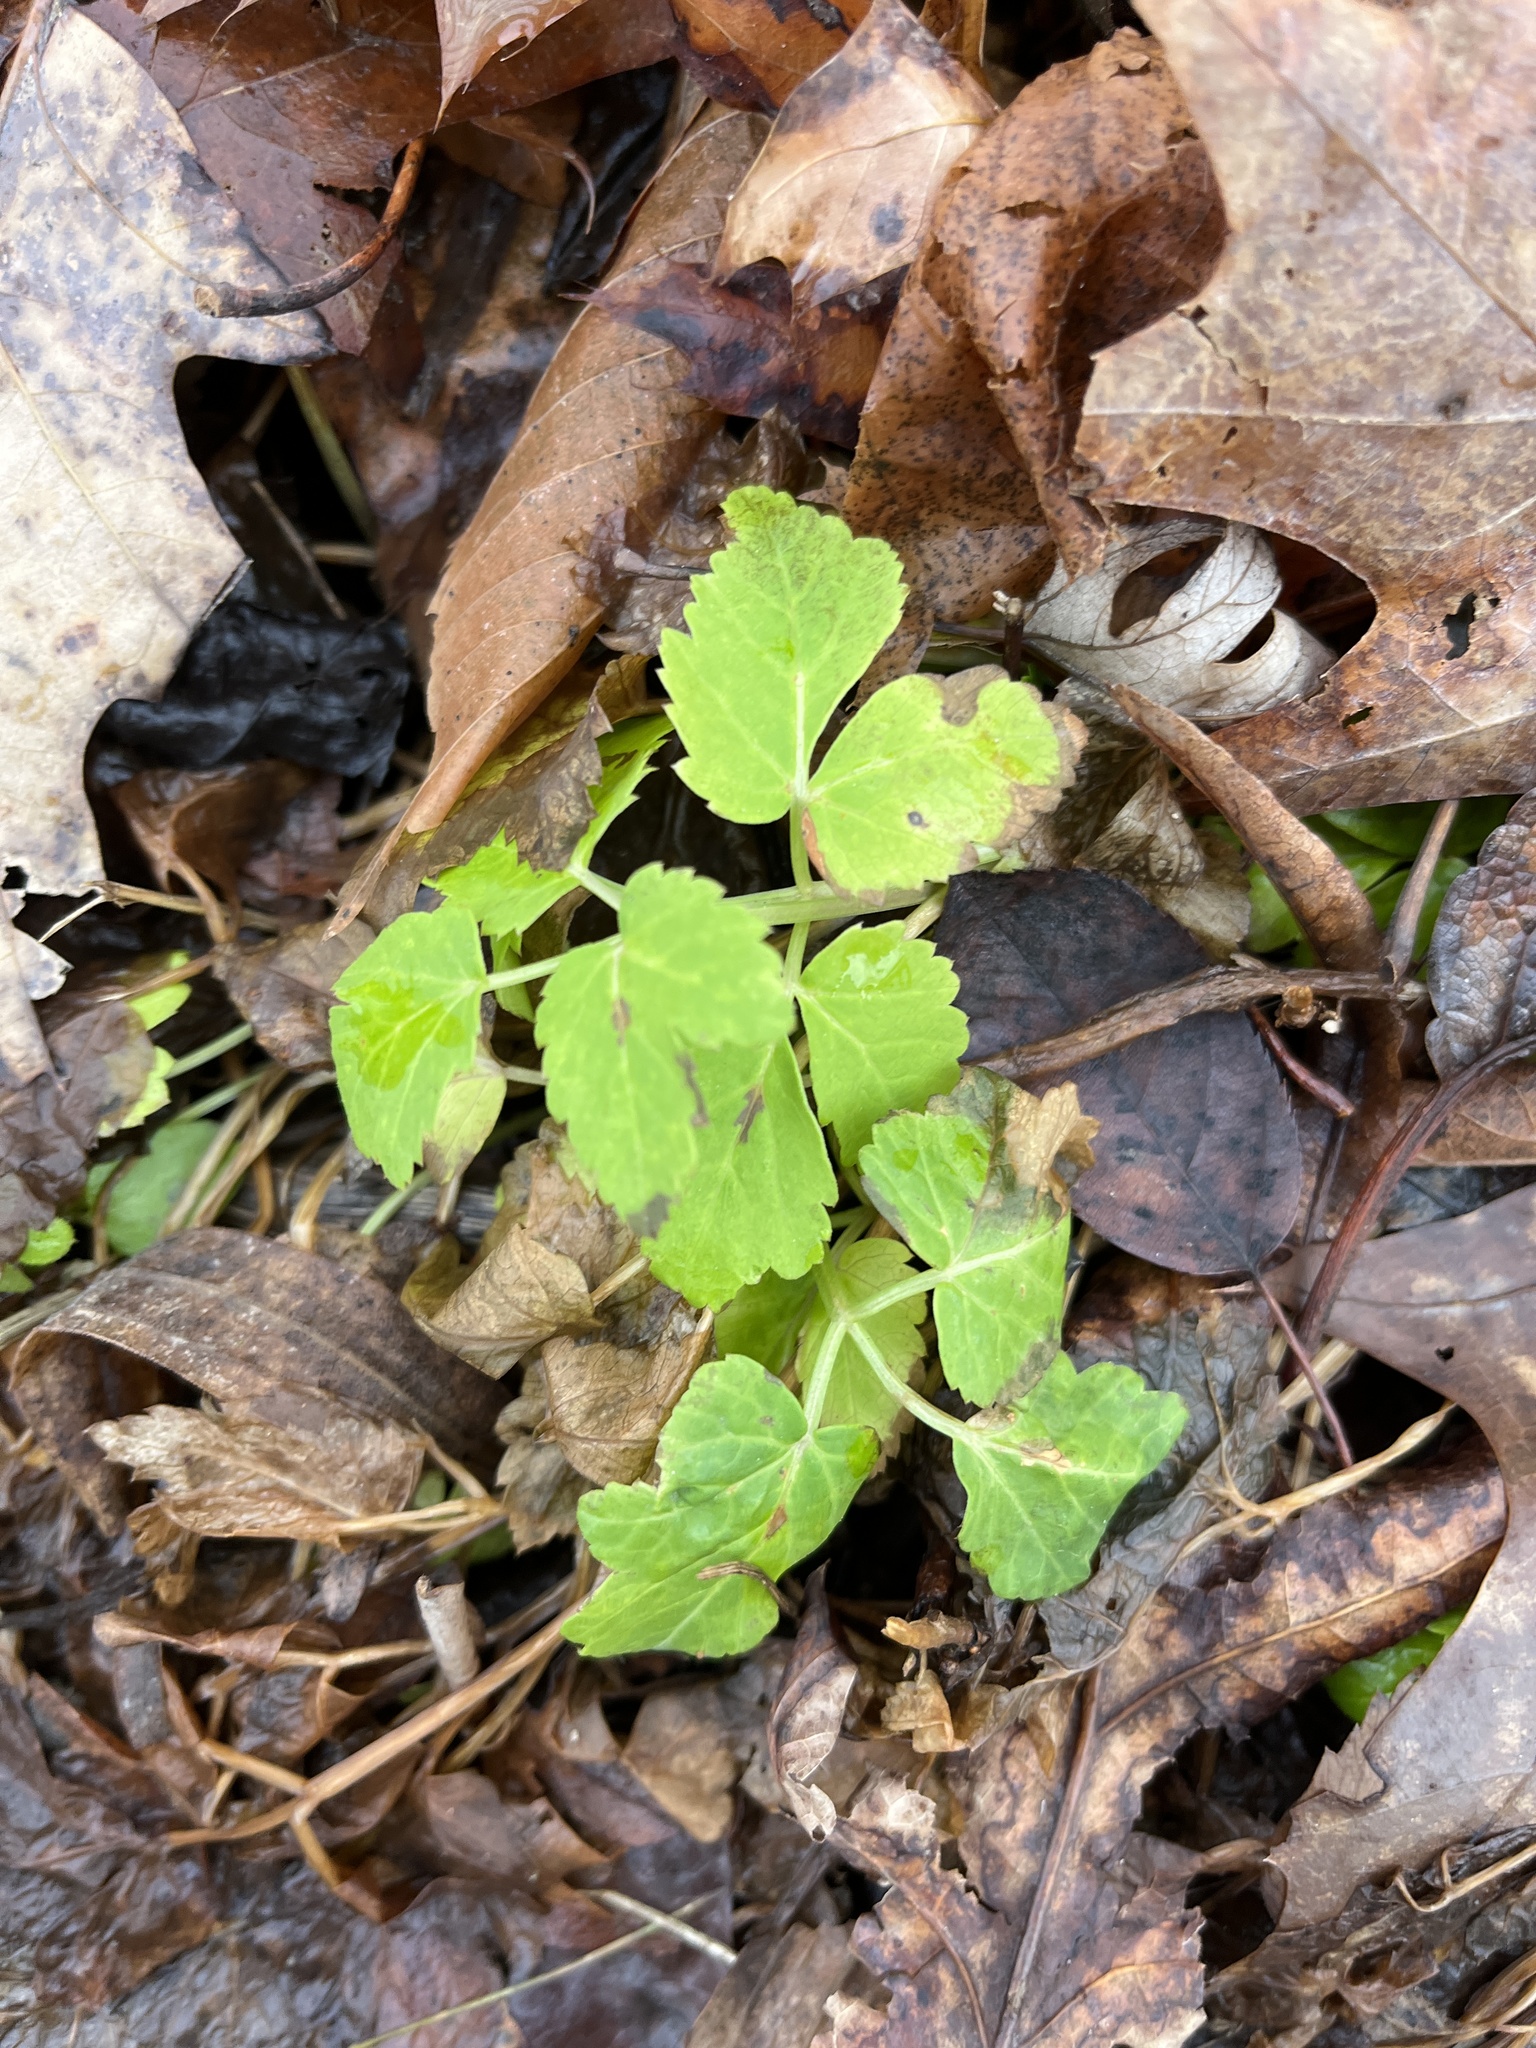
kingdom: Plantae
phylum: Tracheophyta
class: Magnoliopsida
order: Apiales
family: Apiaceae
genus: Aegopodium
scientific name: Aegopodium podagraria
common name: Ground-elder
